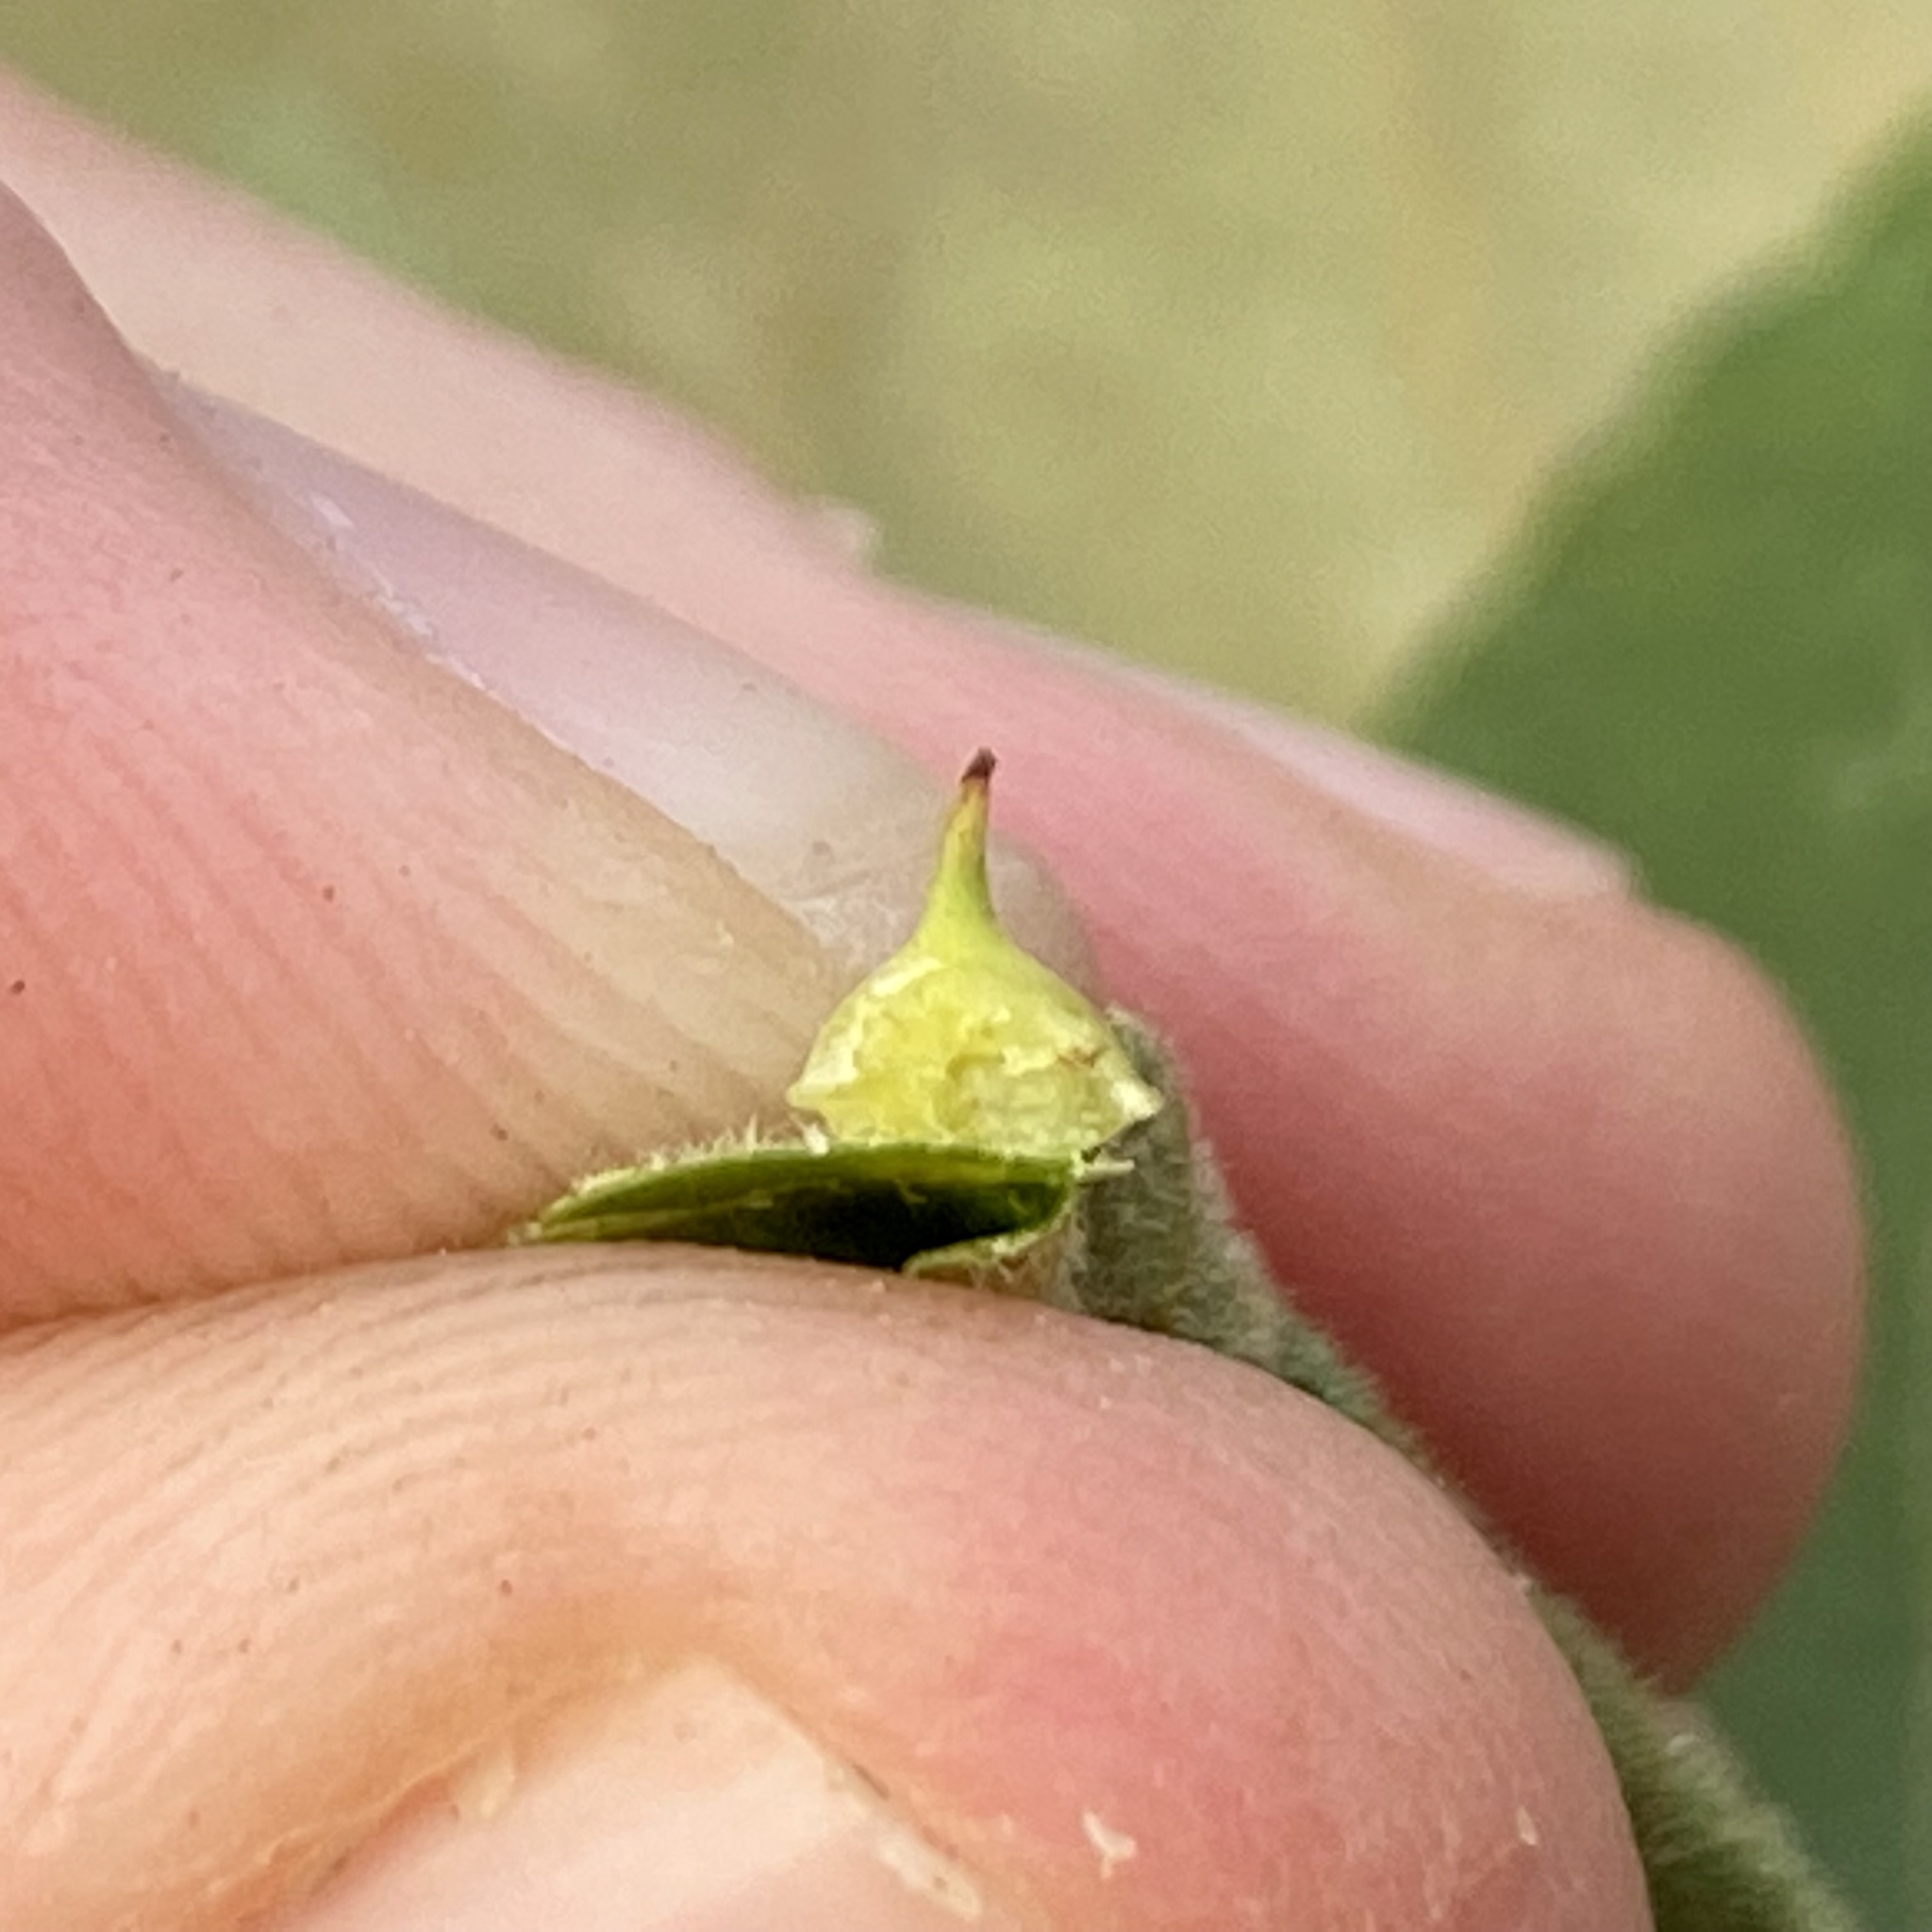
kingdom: Animalia
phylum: Arthropoda
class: Insecta
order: Diptera
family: Cecidomyiidae
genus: Caryomyia
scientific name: Caryomyia sanguinolenta
